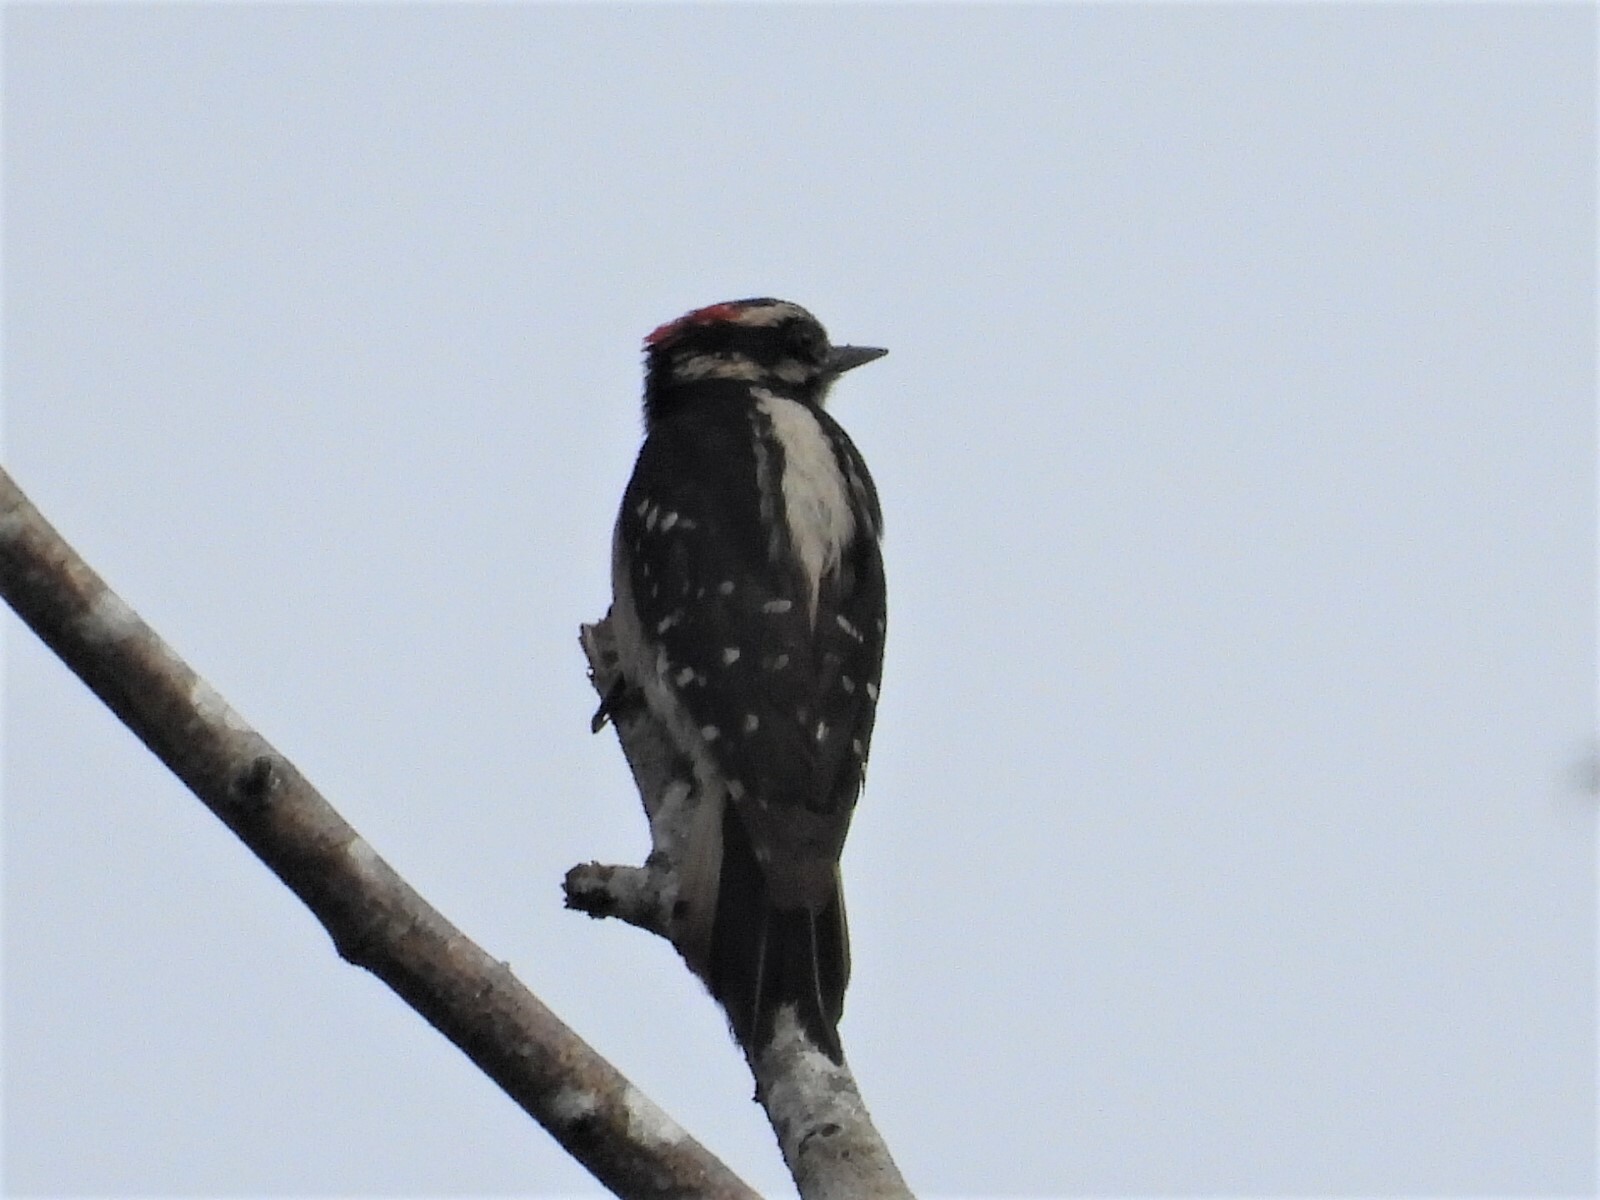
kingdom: Animalia
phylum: Chordata
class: Aves
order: Piciformes
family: Picidae
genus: Dryobates
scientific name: Dryobates pubescens
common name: Downy woodpecker
